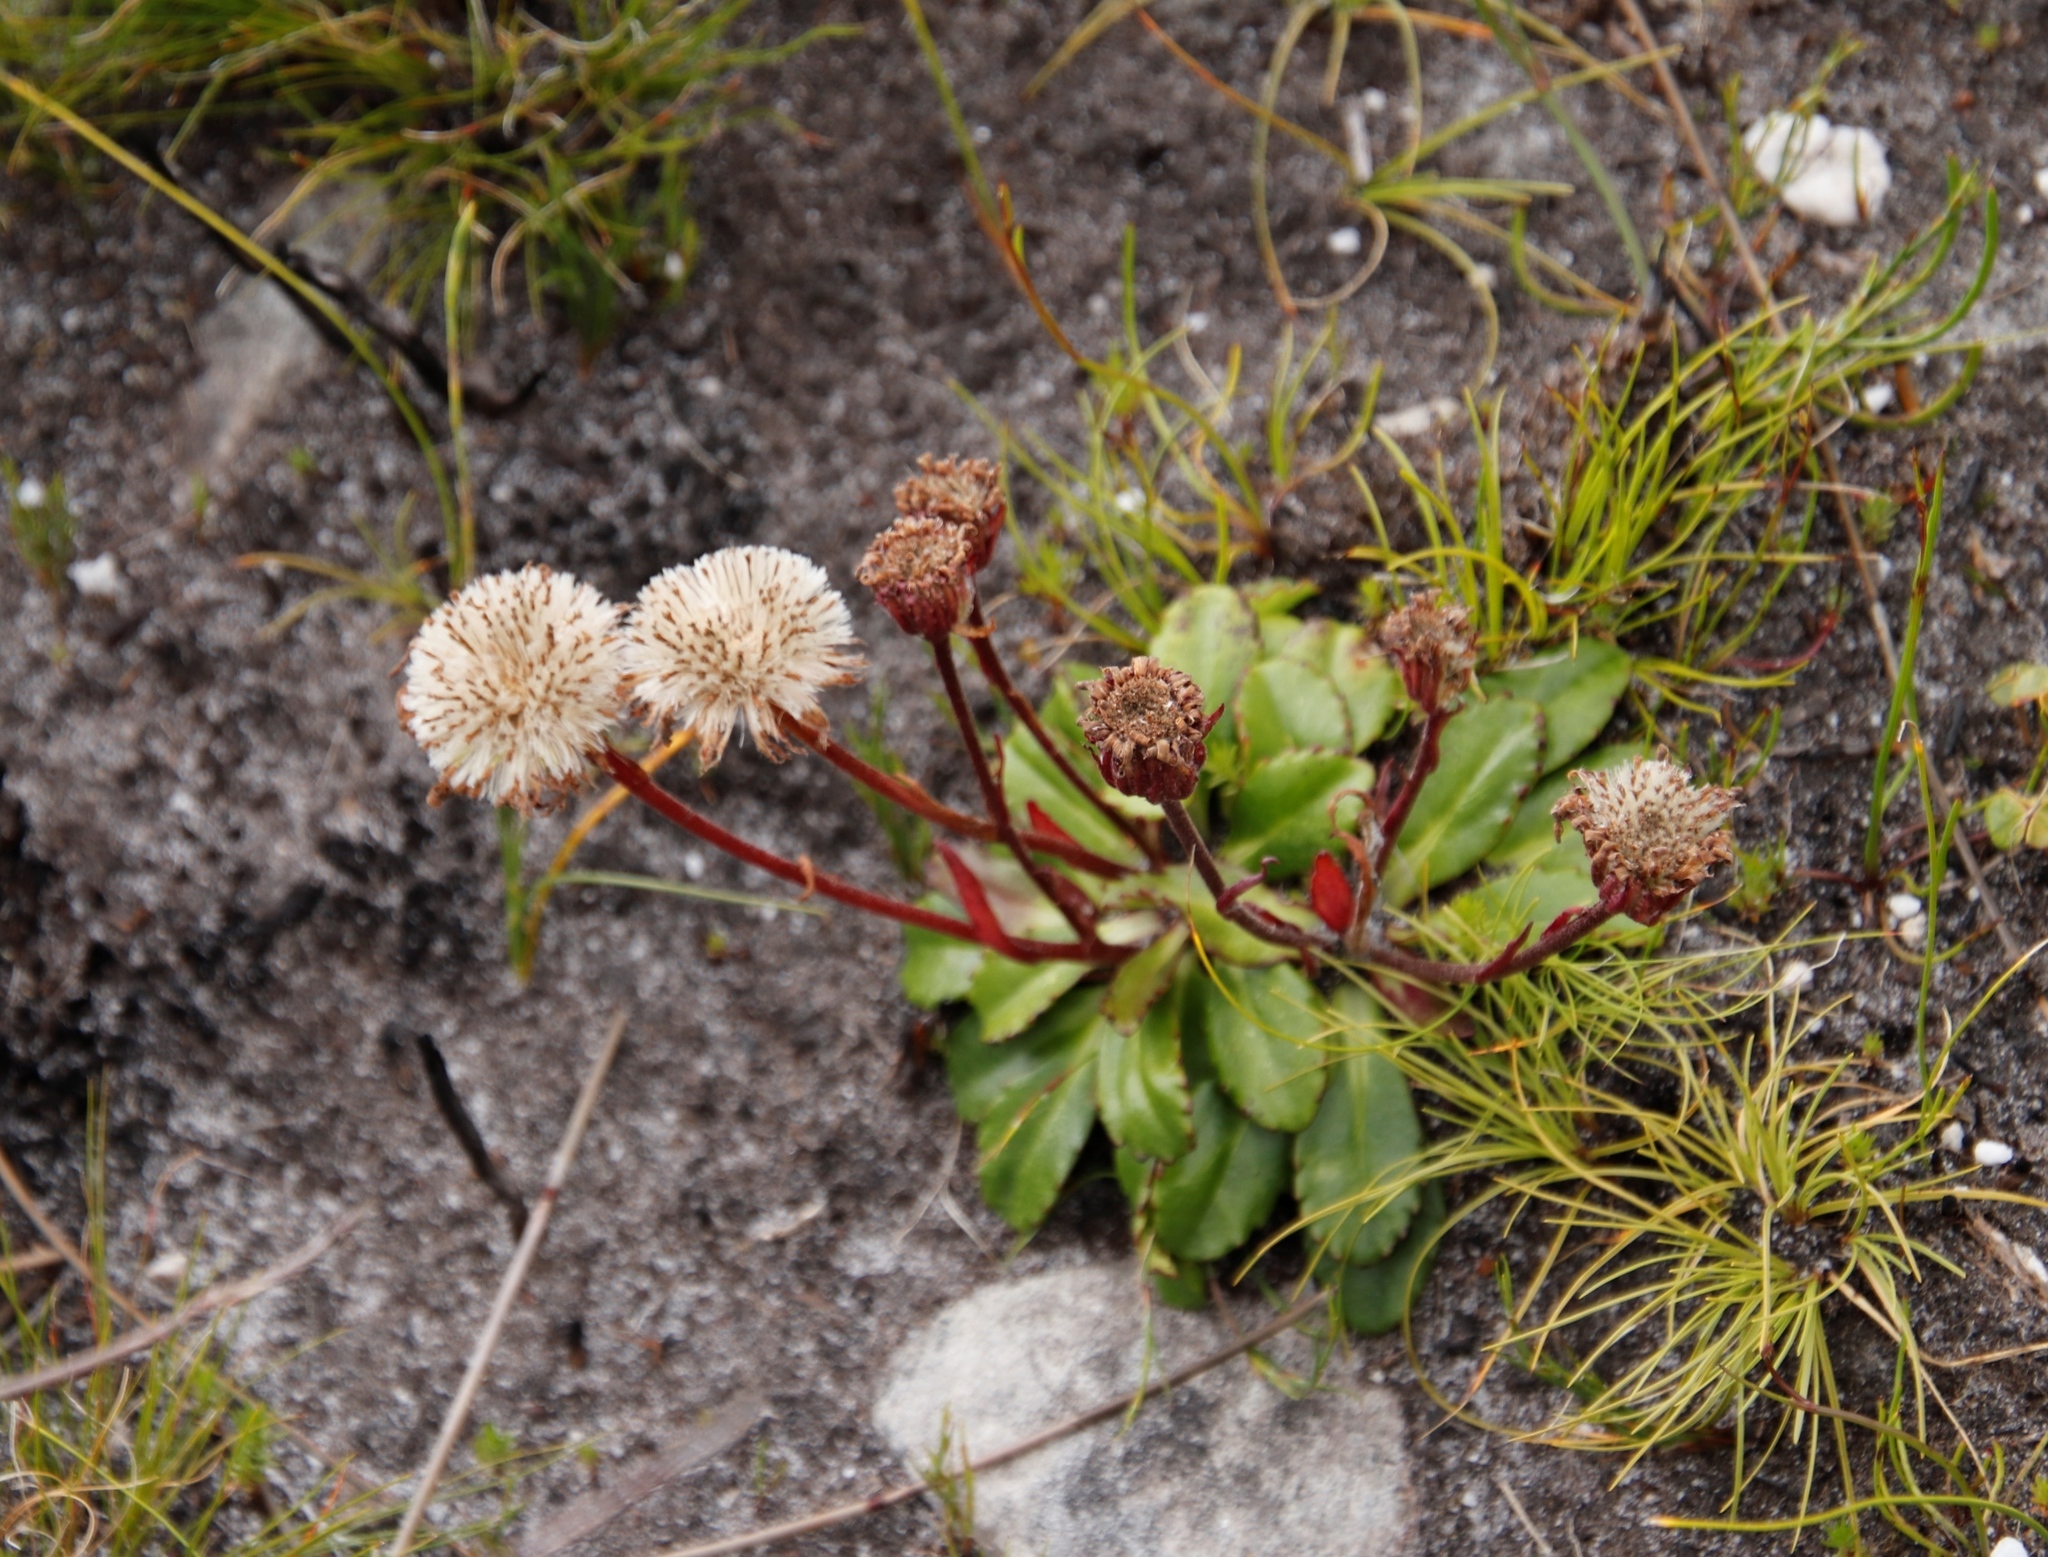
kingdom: Plantae
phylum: Tracheophyta
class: Magnoliopsida
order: Asterales
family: Asteraceae
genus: Zyrphelis
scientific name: Zyrphelis crenata
